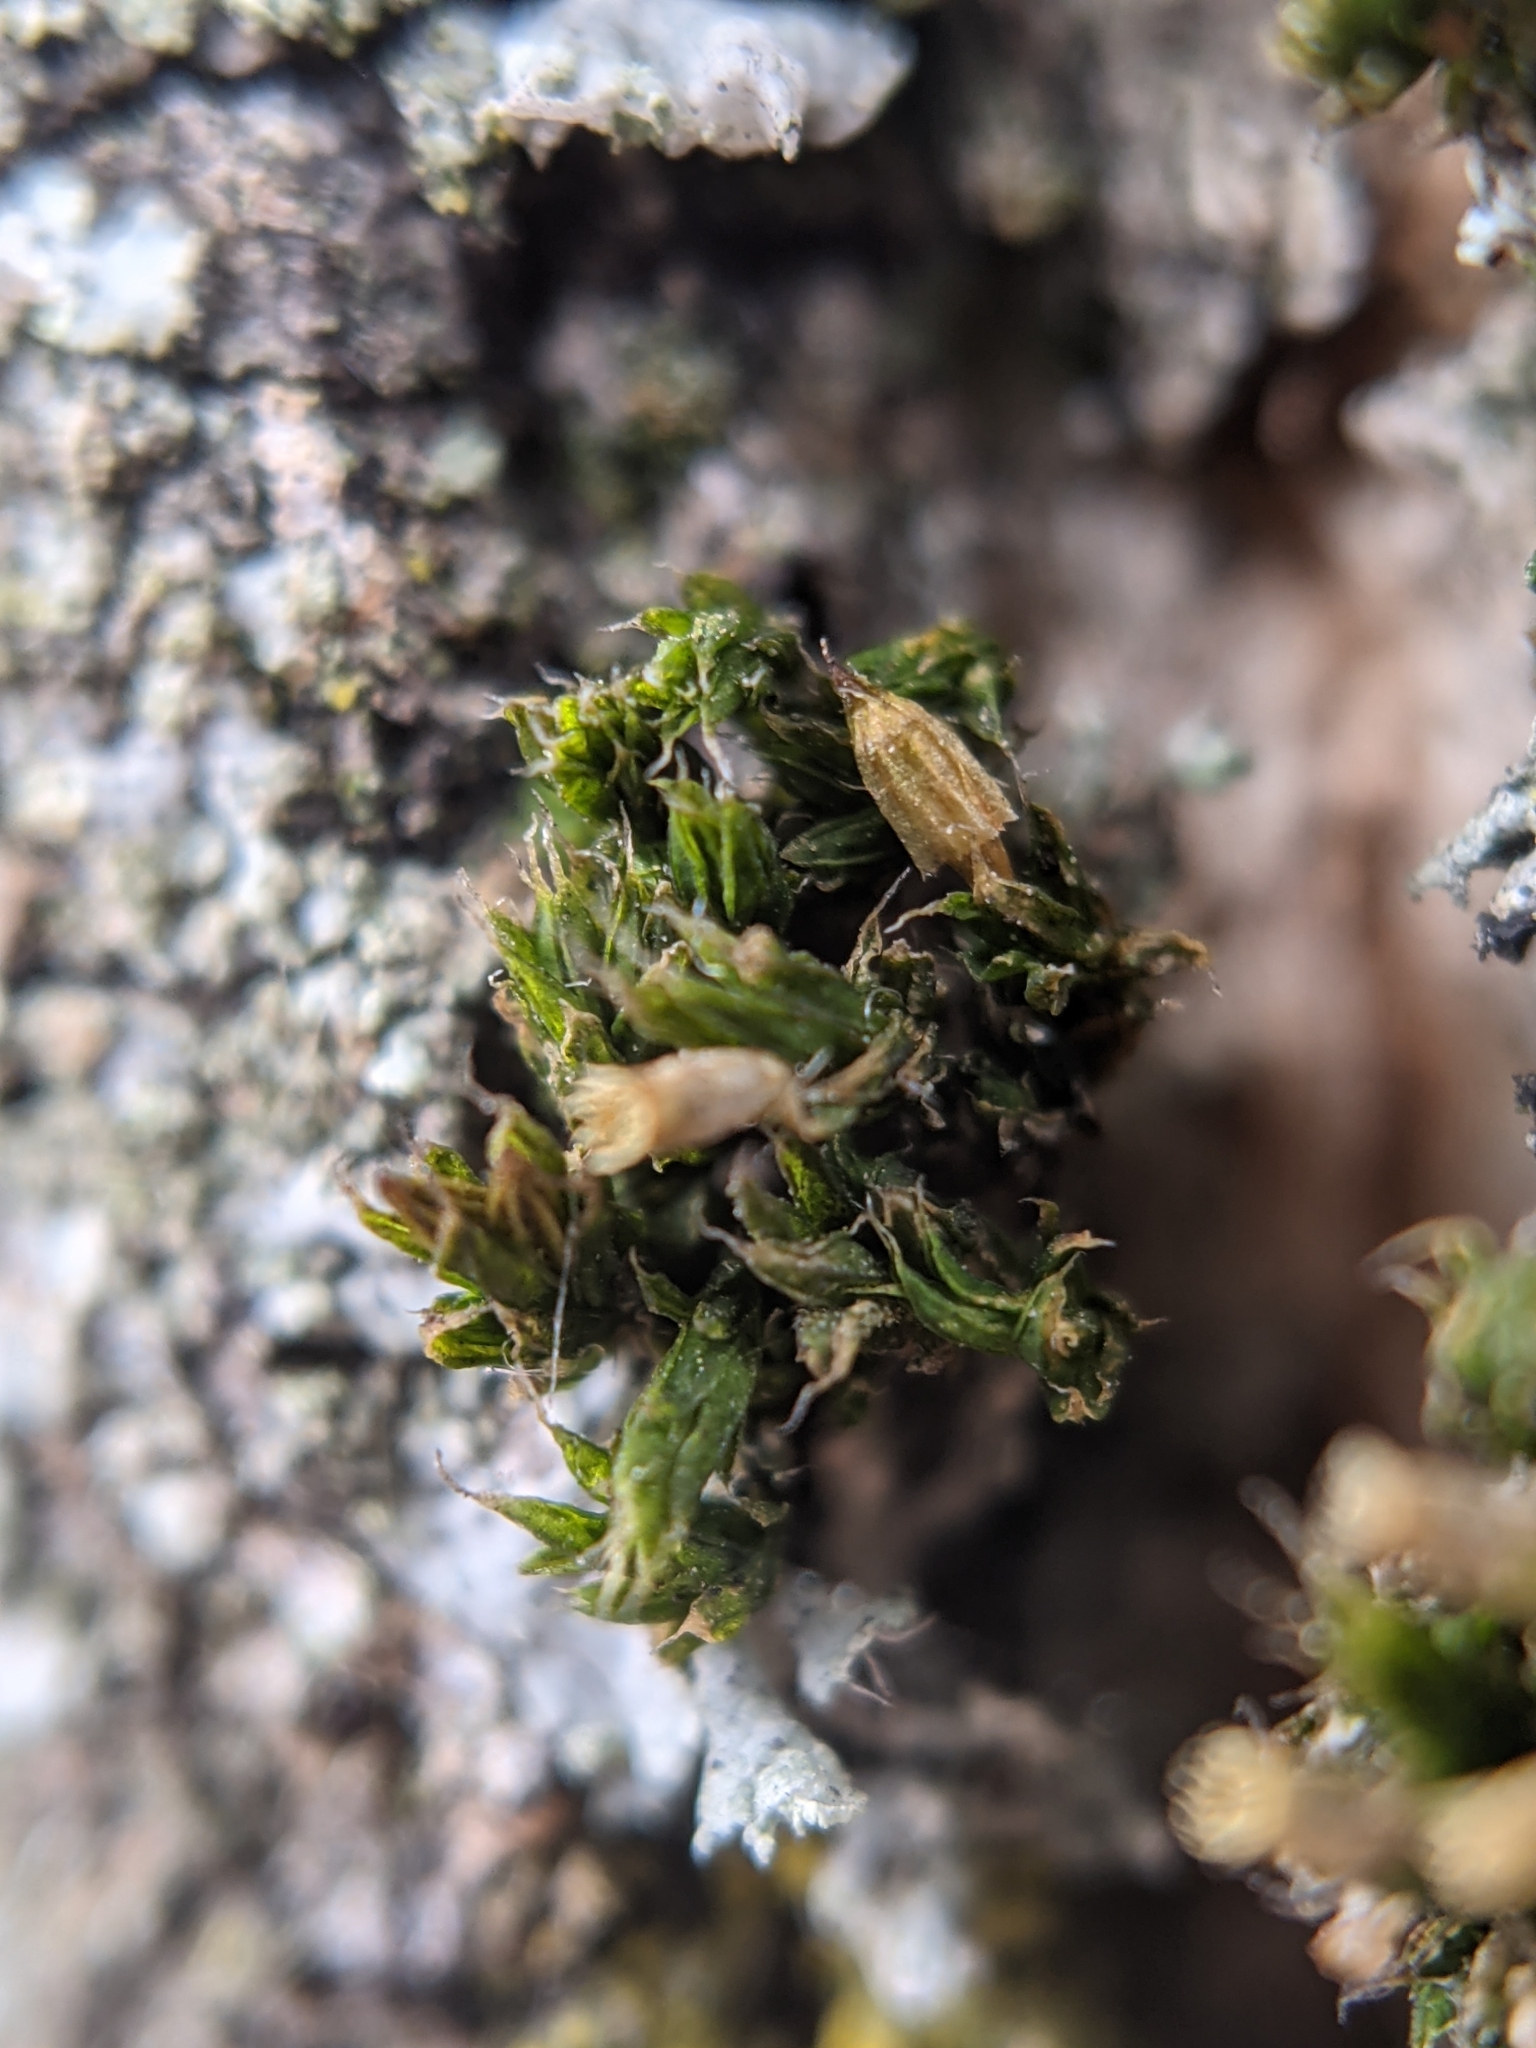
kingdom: Plantae
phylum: Bryophyta
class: Bryopsida
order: Orthotrichales
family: Orthotrichaceae
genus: Orthotrichum
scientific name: Orthotrichum diaphanum
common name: White-tipped bristle-moss
